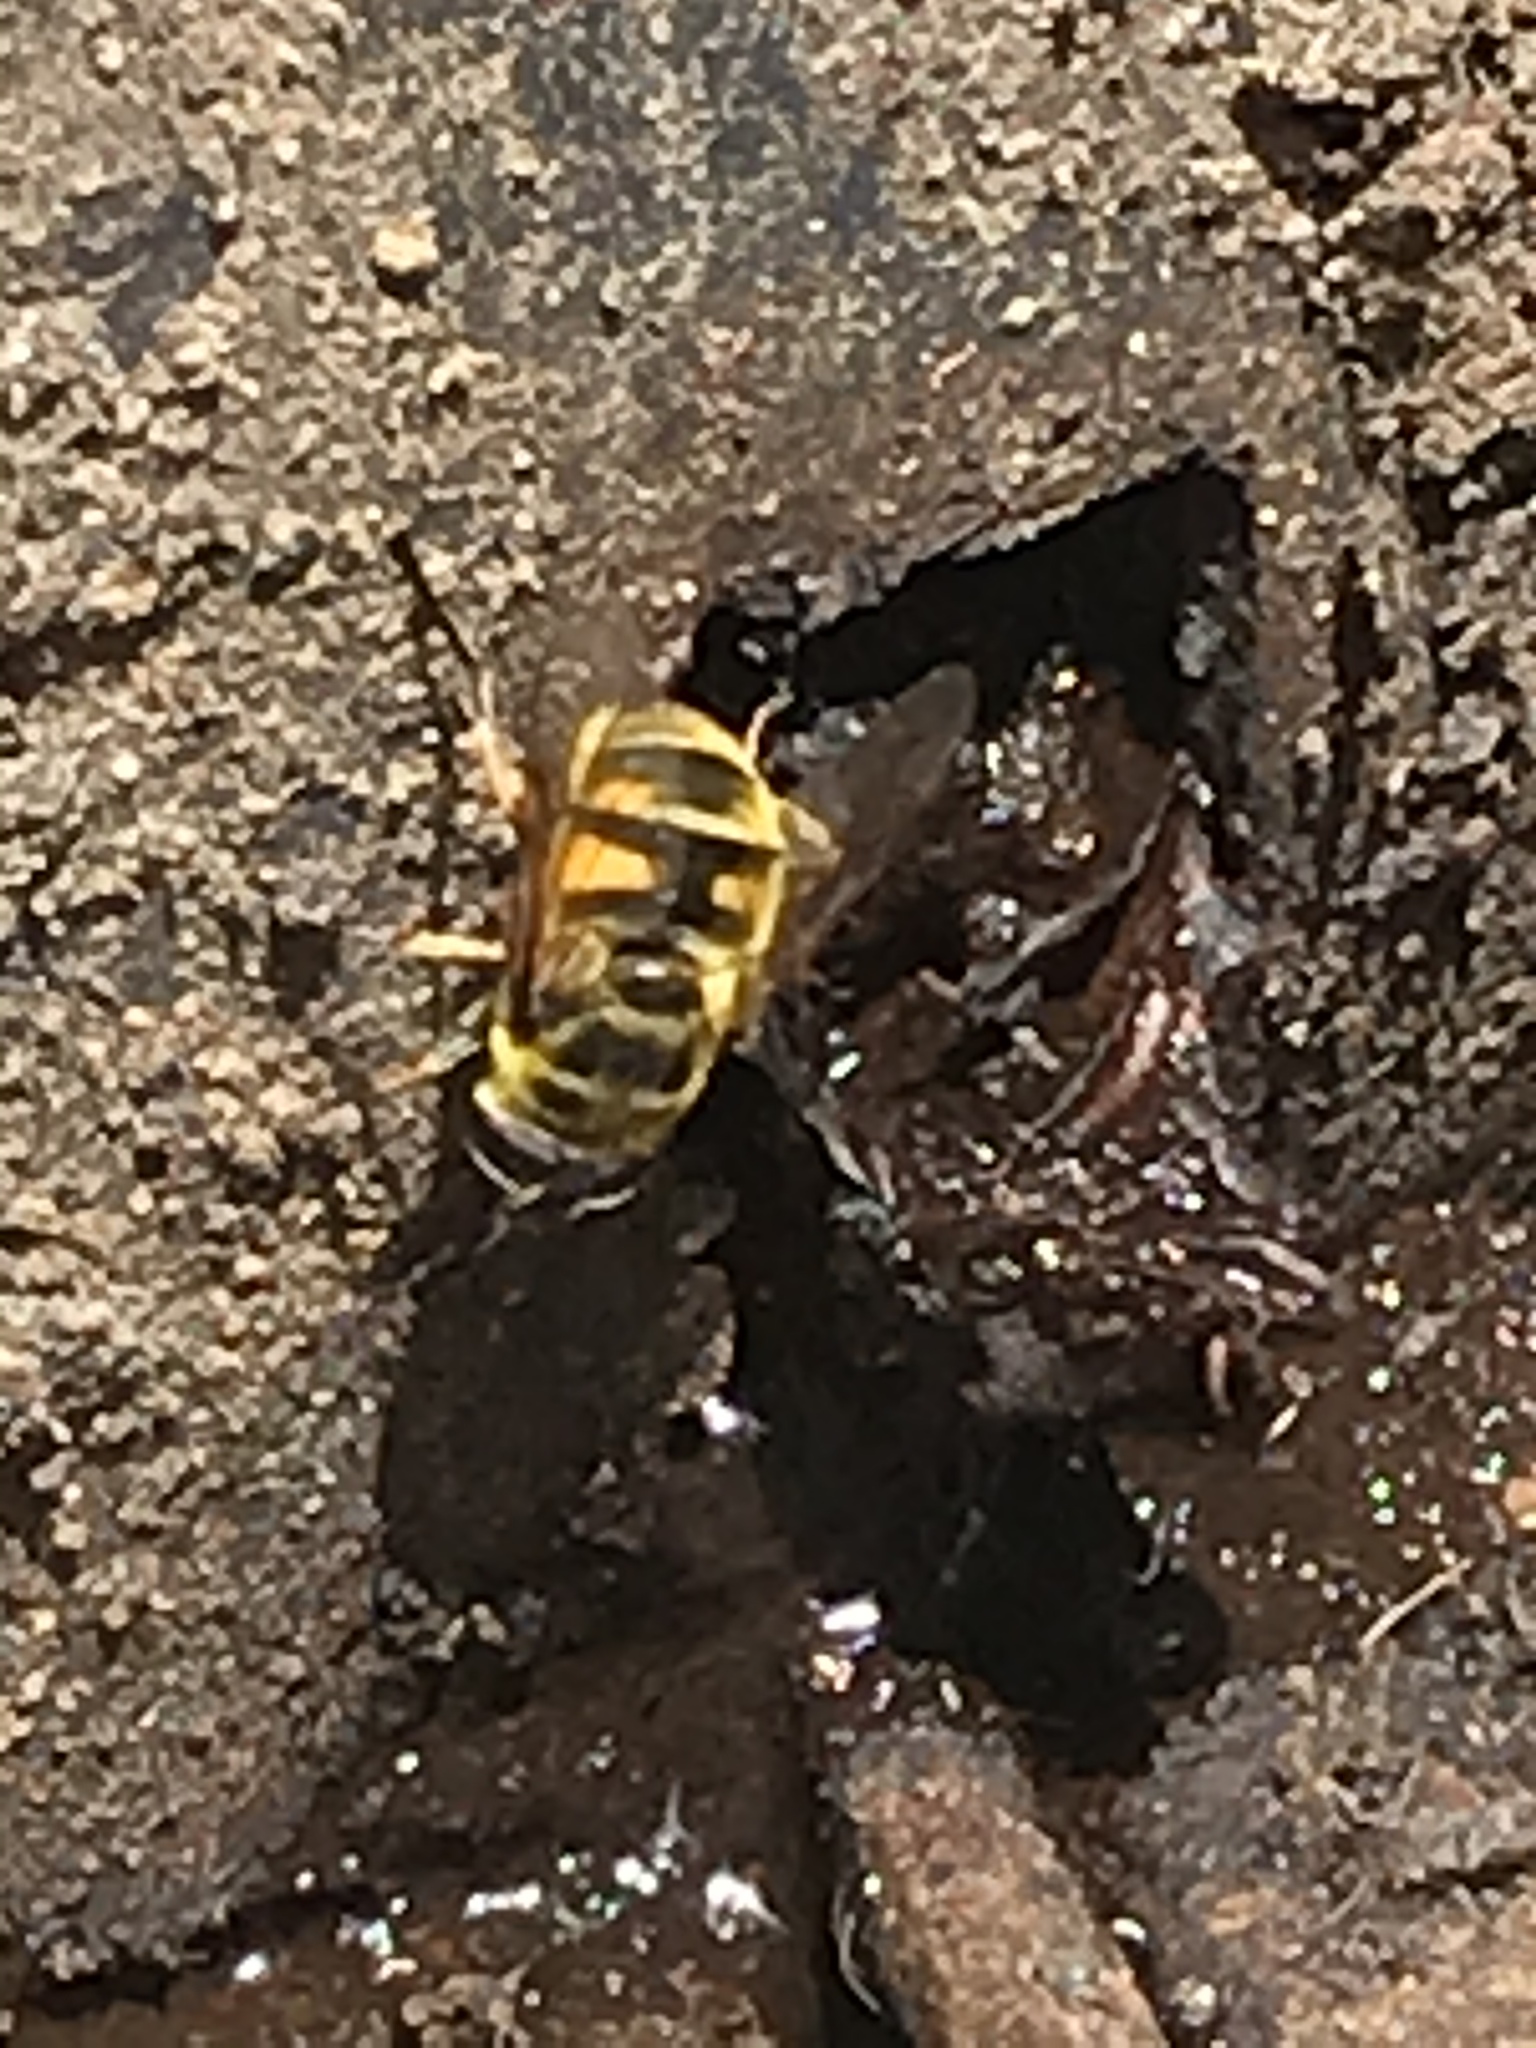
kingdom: Animalia
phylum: Arthropoda
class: Insecta
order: Diptera
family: Syrphidae
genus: Myathropa
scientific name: Myathropa florea
